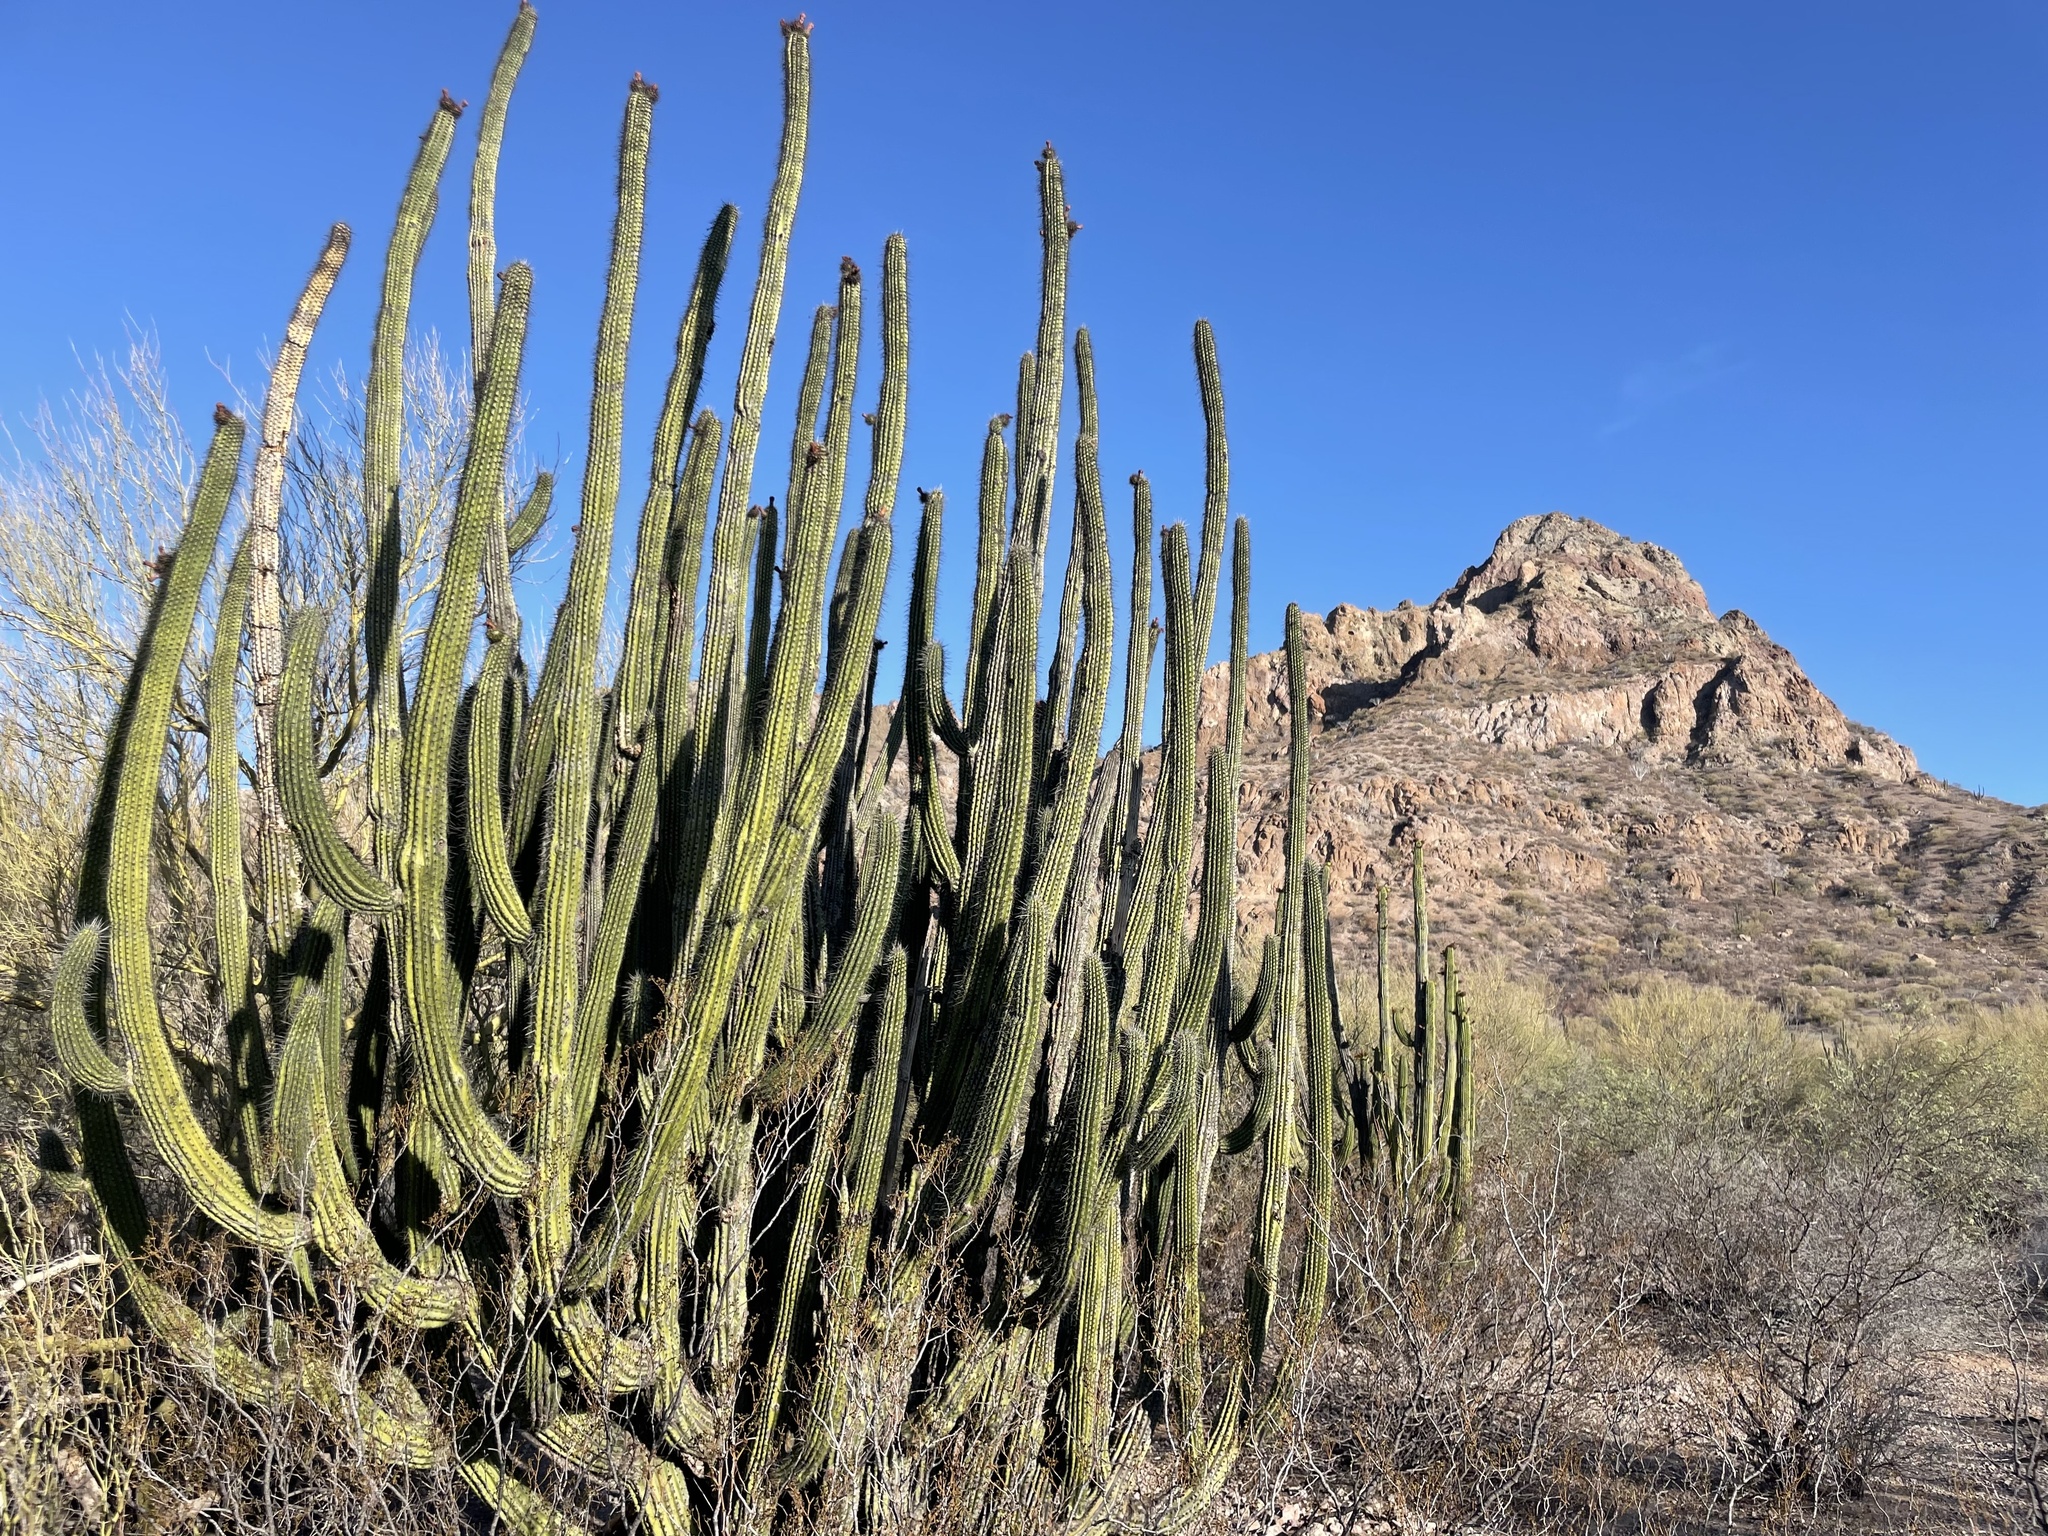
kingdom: Plantae
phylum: Tracheophyta
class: Magnoliopsida
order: Caryophyllales
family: Cactaceae
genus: Stenocereus
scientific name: Stenocereus thurberi
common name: Organ pipe cactus
